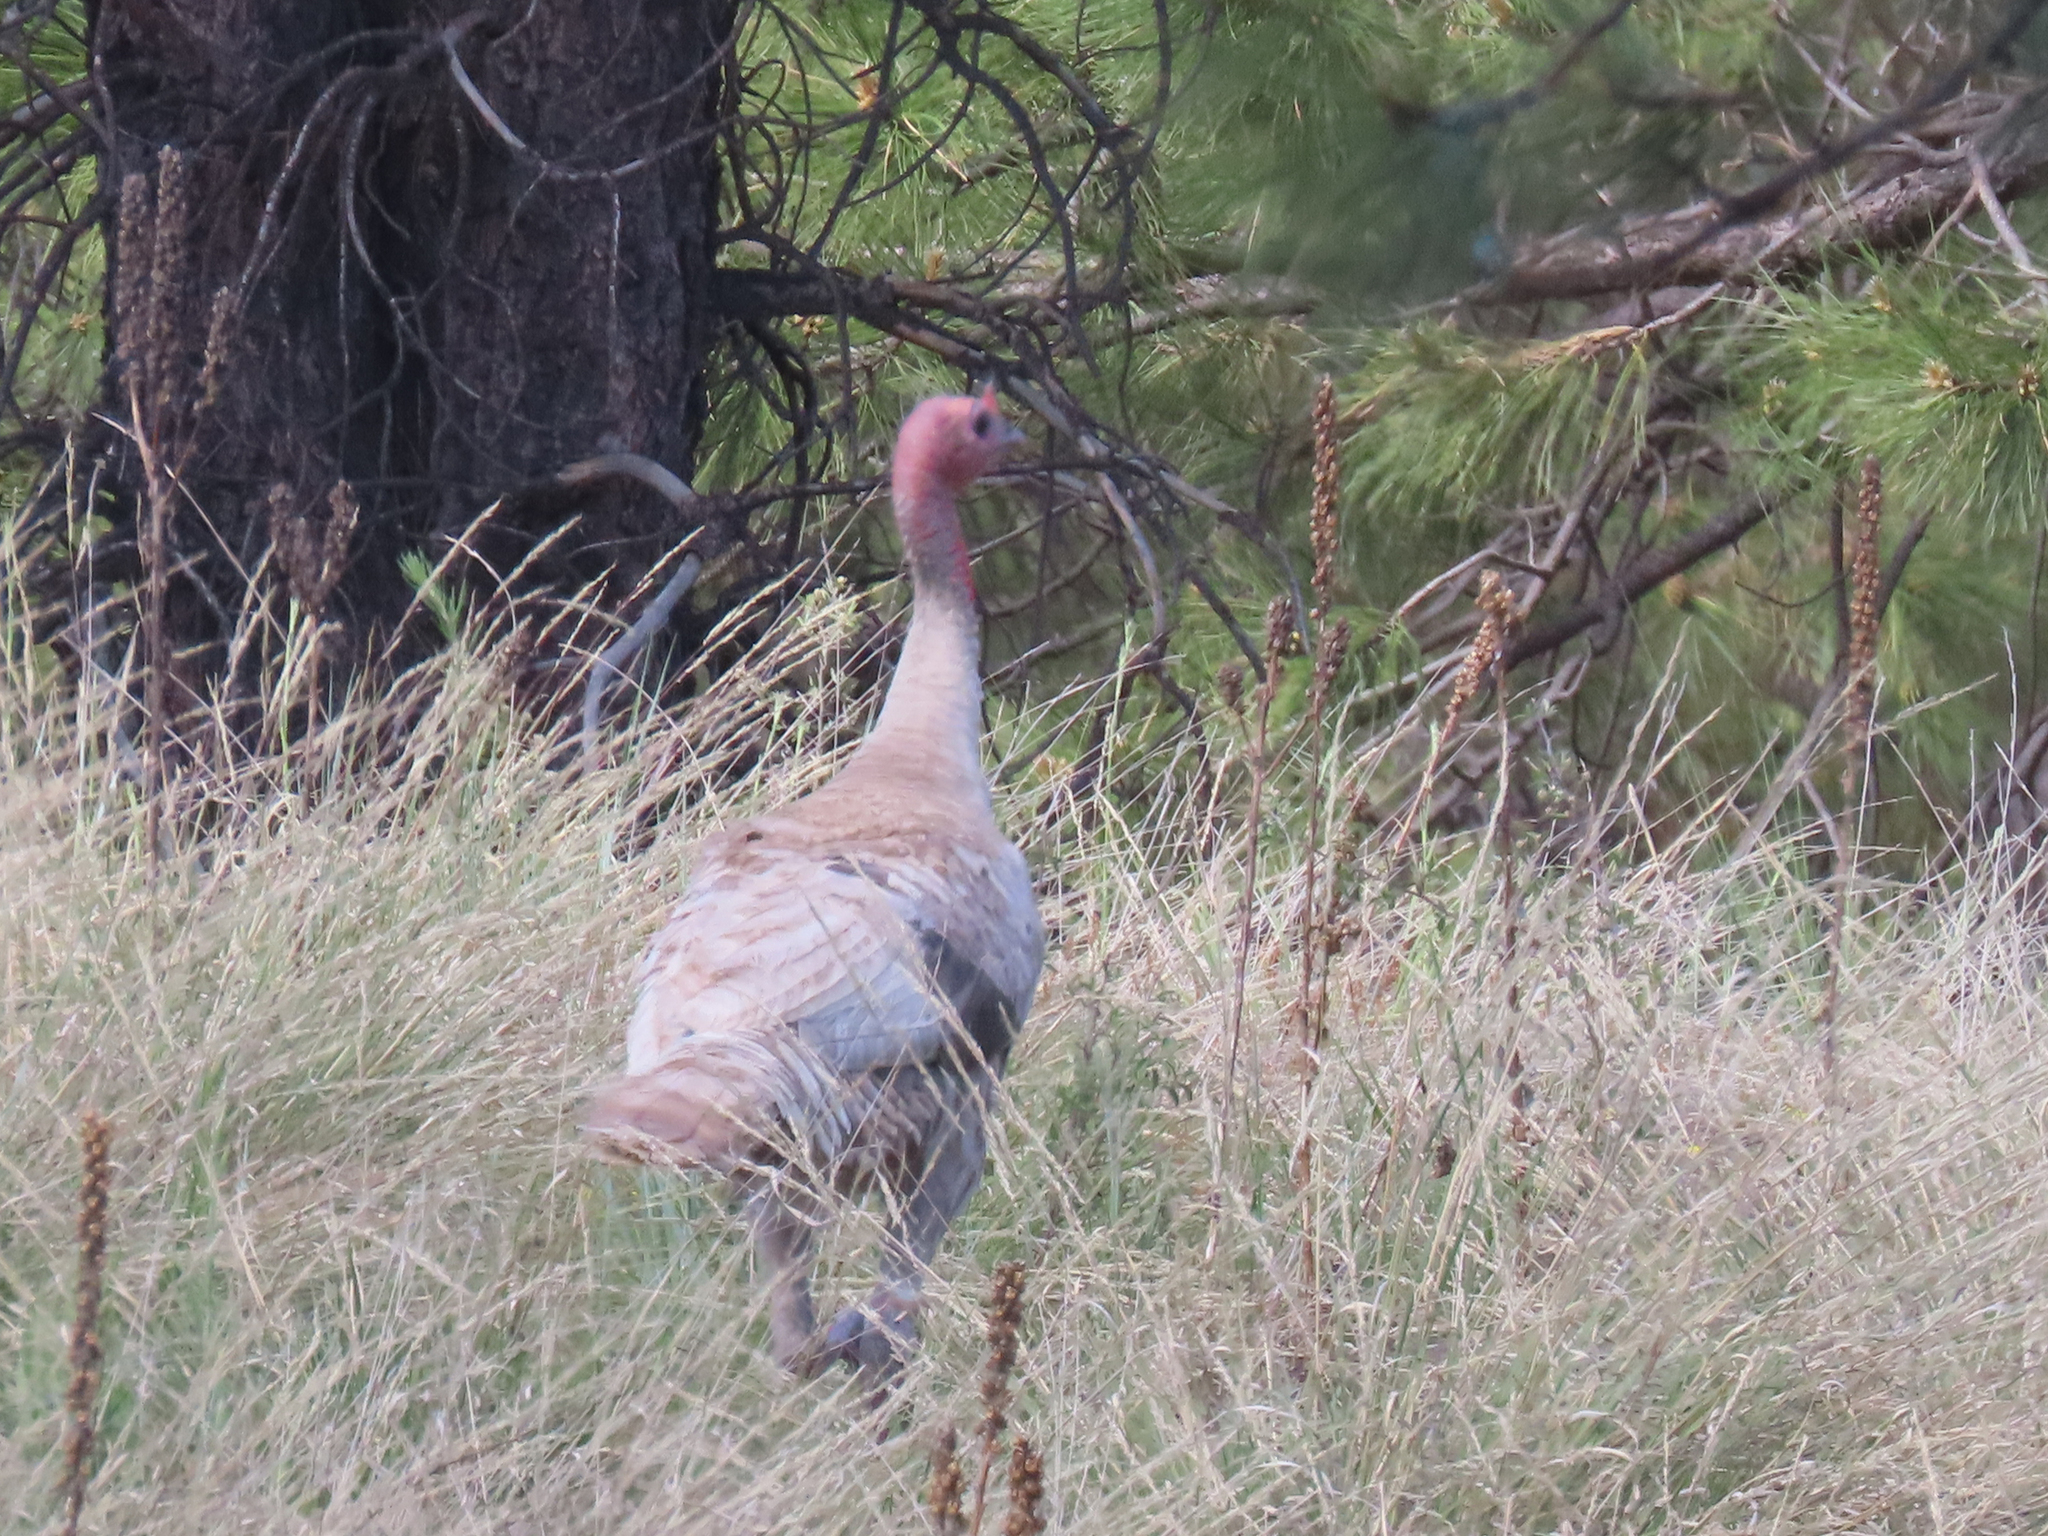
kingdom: Animalia
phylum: Chordata
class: Aves
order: Galliformes
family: Phasianidae
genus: Meleagris
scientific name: Meleagris gallopavo
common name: Wild turkey
